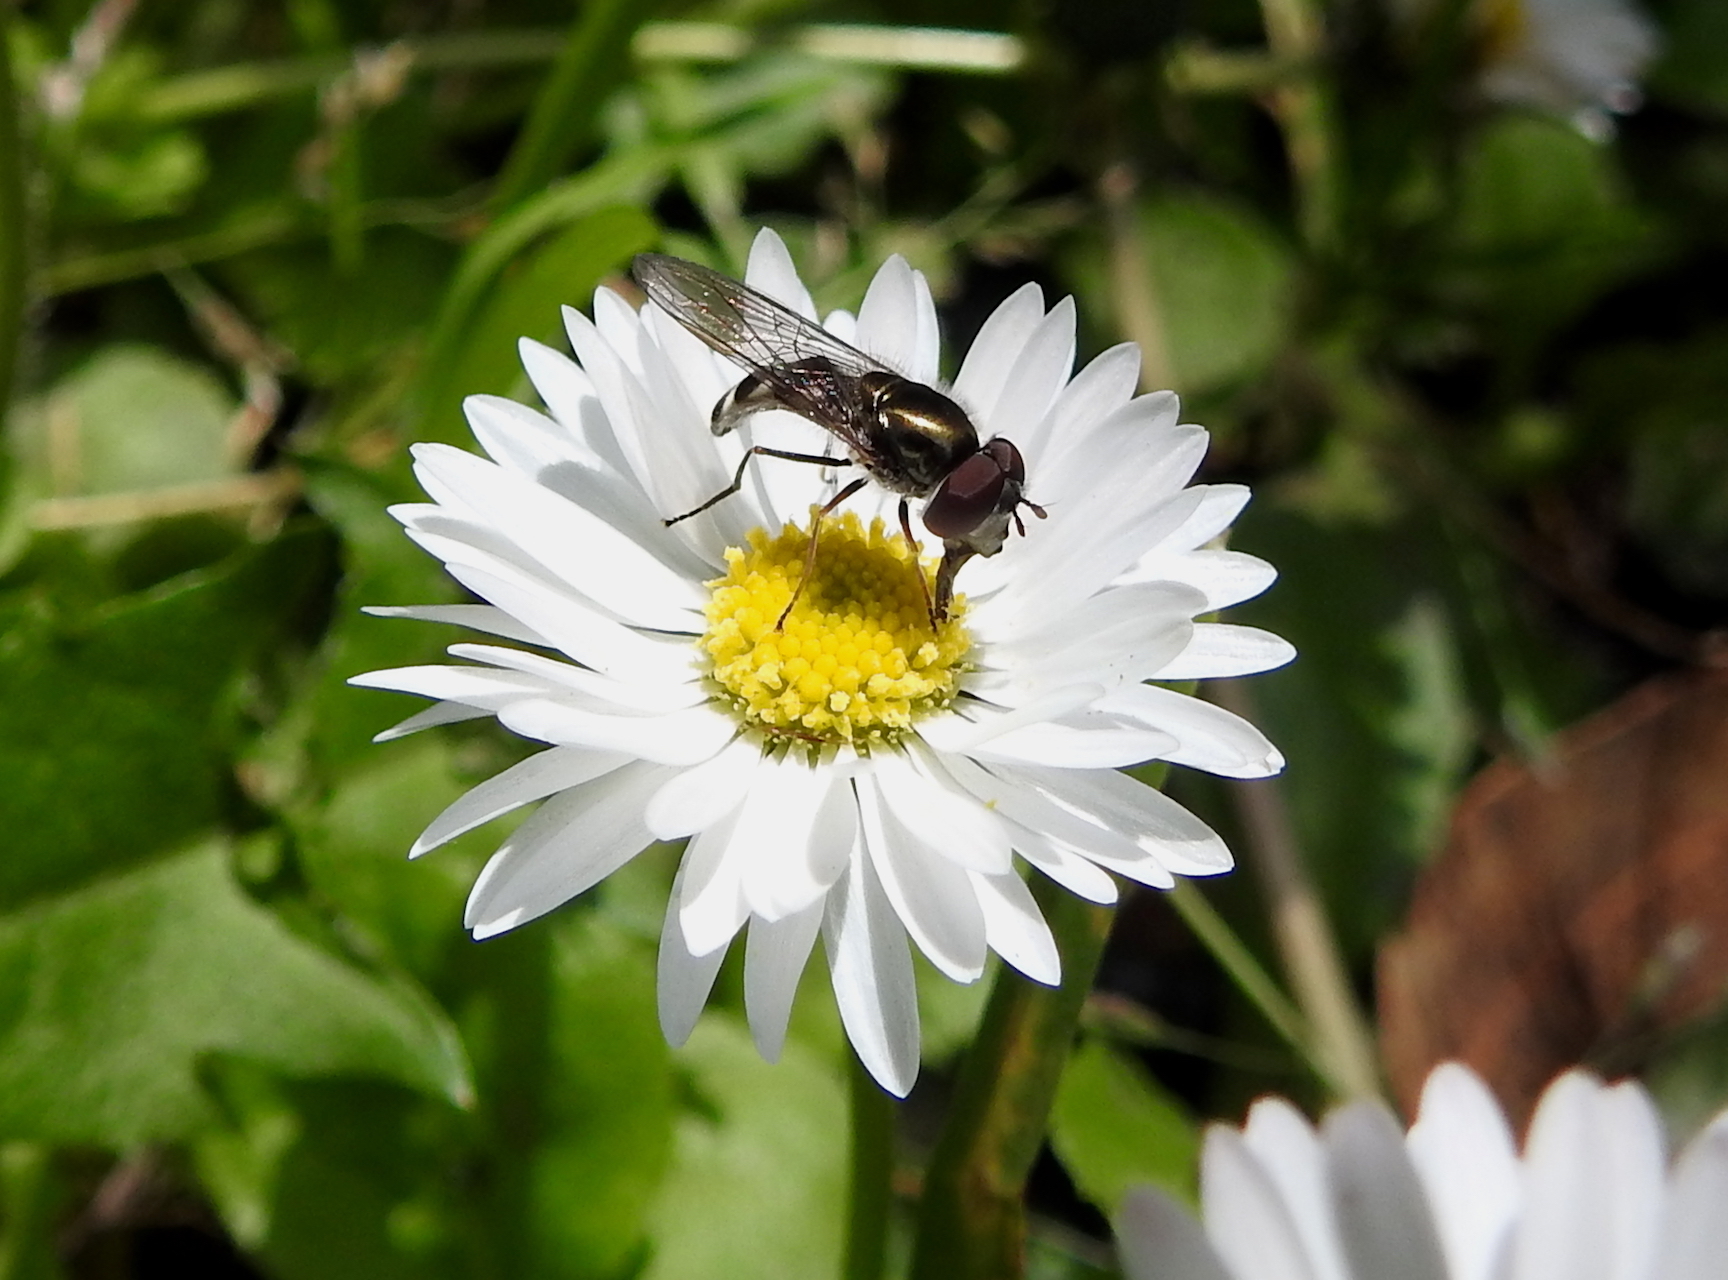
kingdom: Animalia
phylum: Arthropoda
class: Insecta
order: Diptera
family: Syrphidae
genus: Platycheirus
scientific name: Platycheirus trichopus
